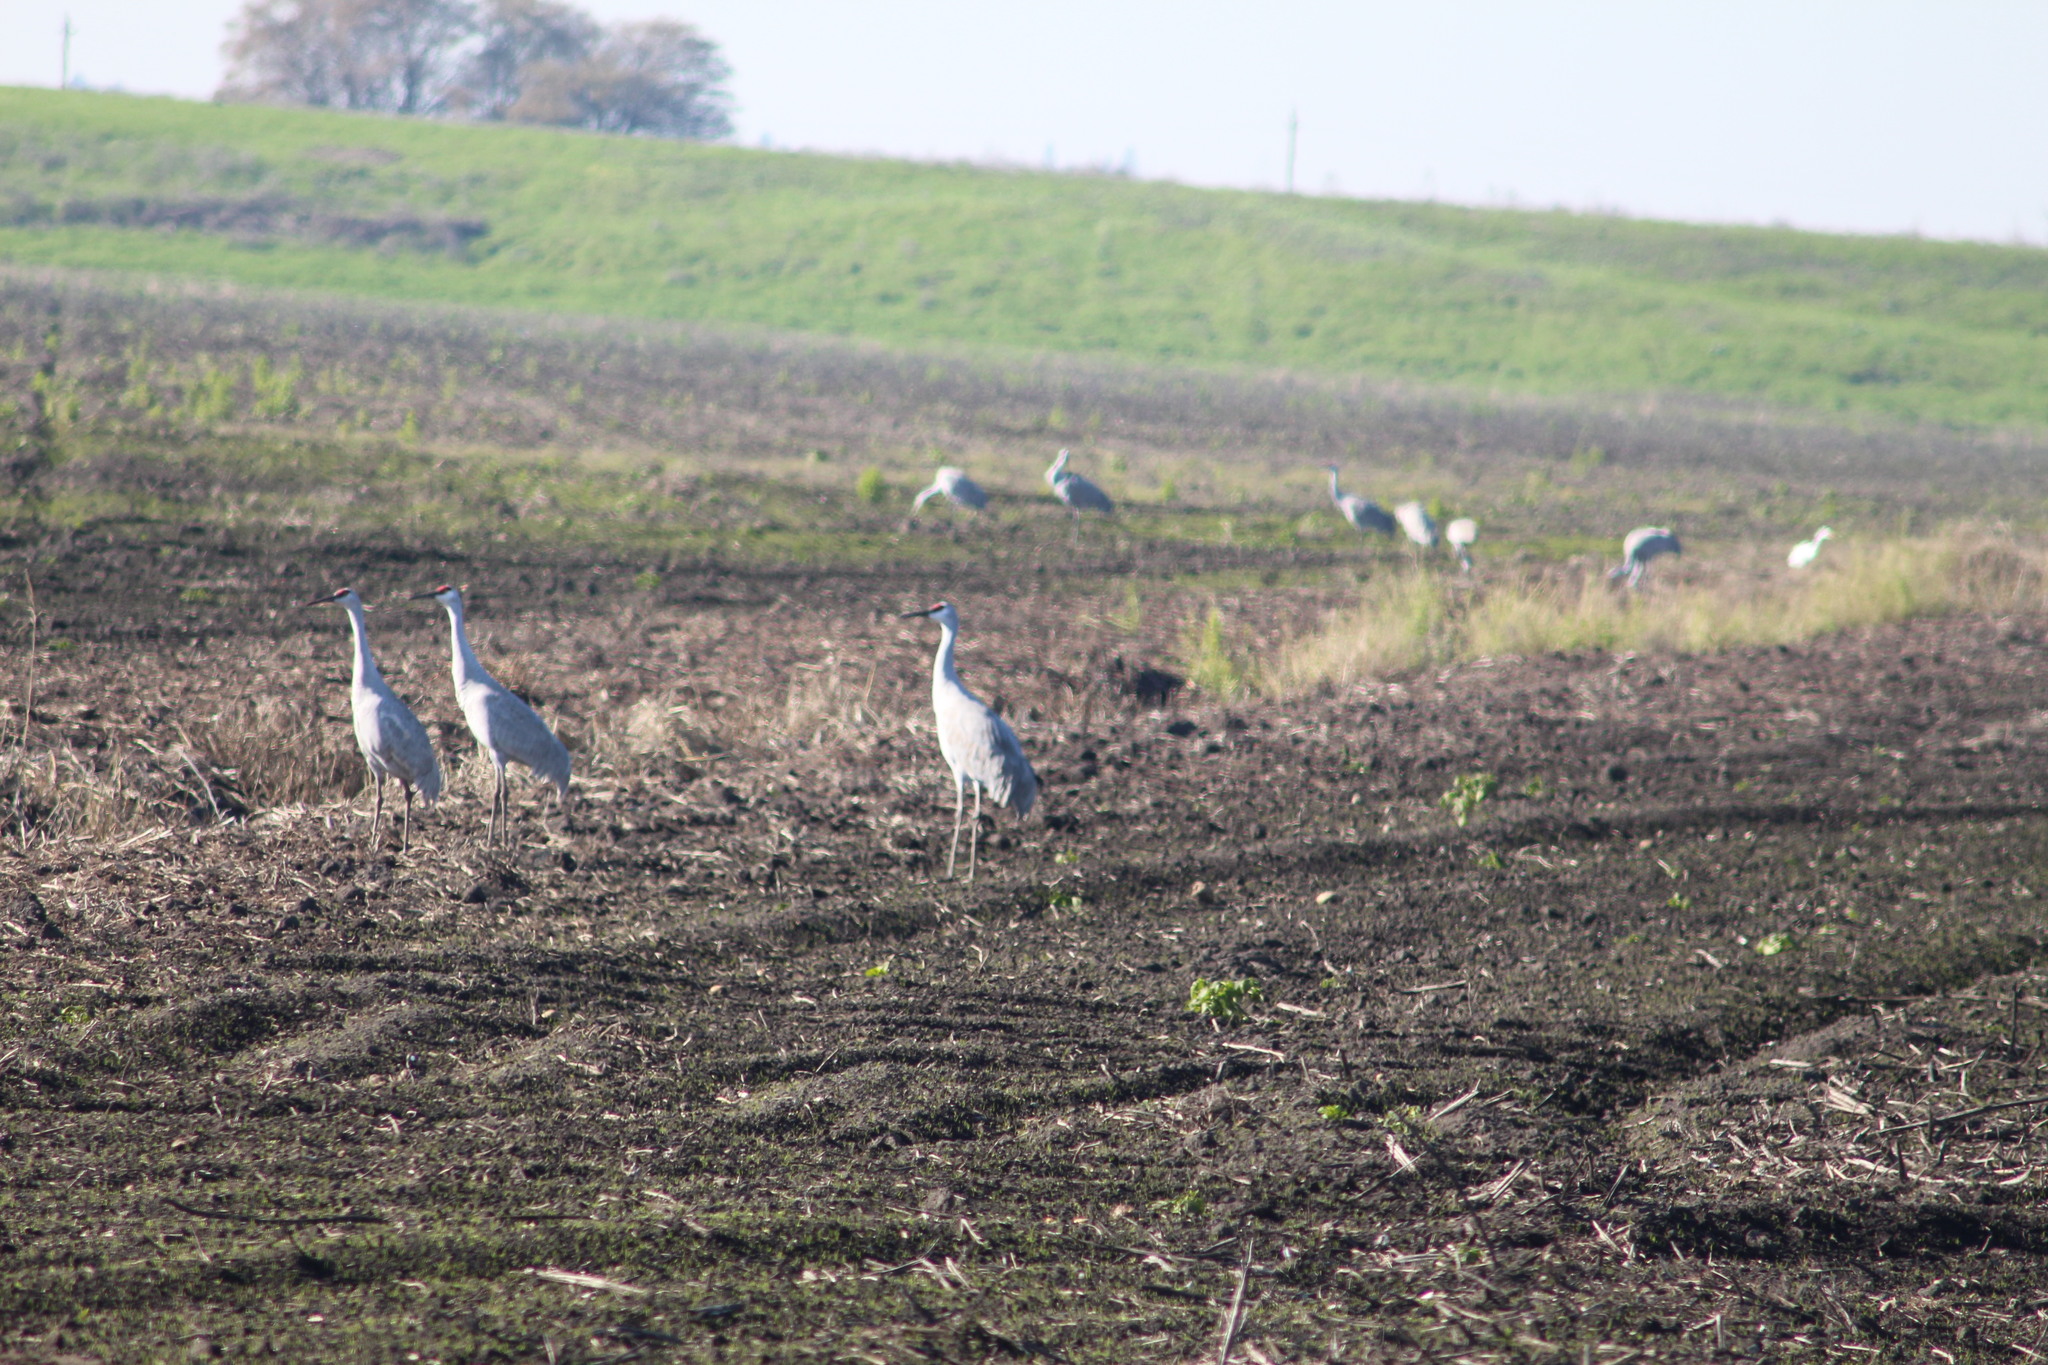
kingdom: Animalia
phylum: Chordata
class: Aves
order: Gruiformes
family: Gruidae
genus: Grus
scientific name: Grus canadensis
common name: Sandhill crane
